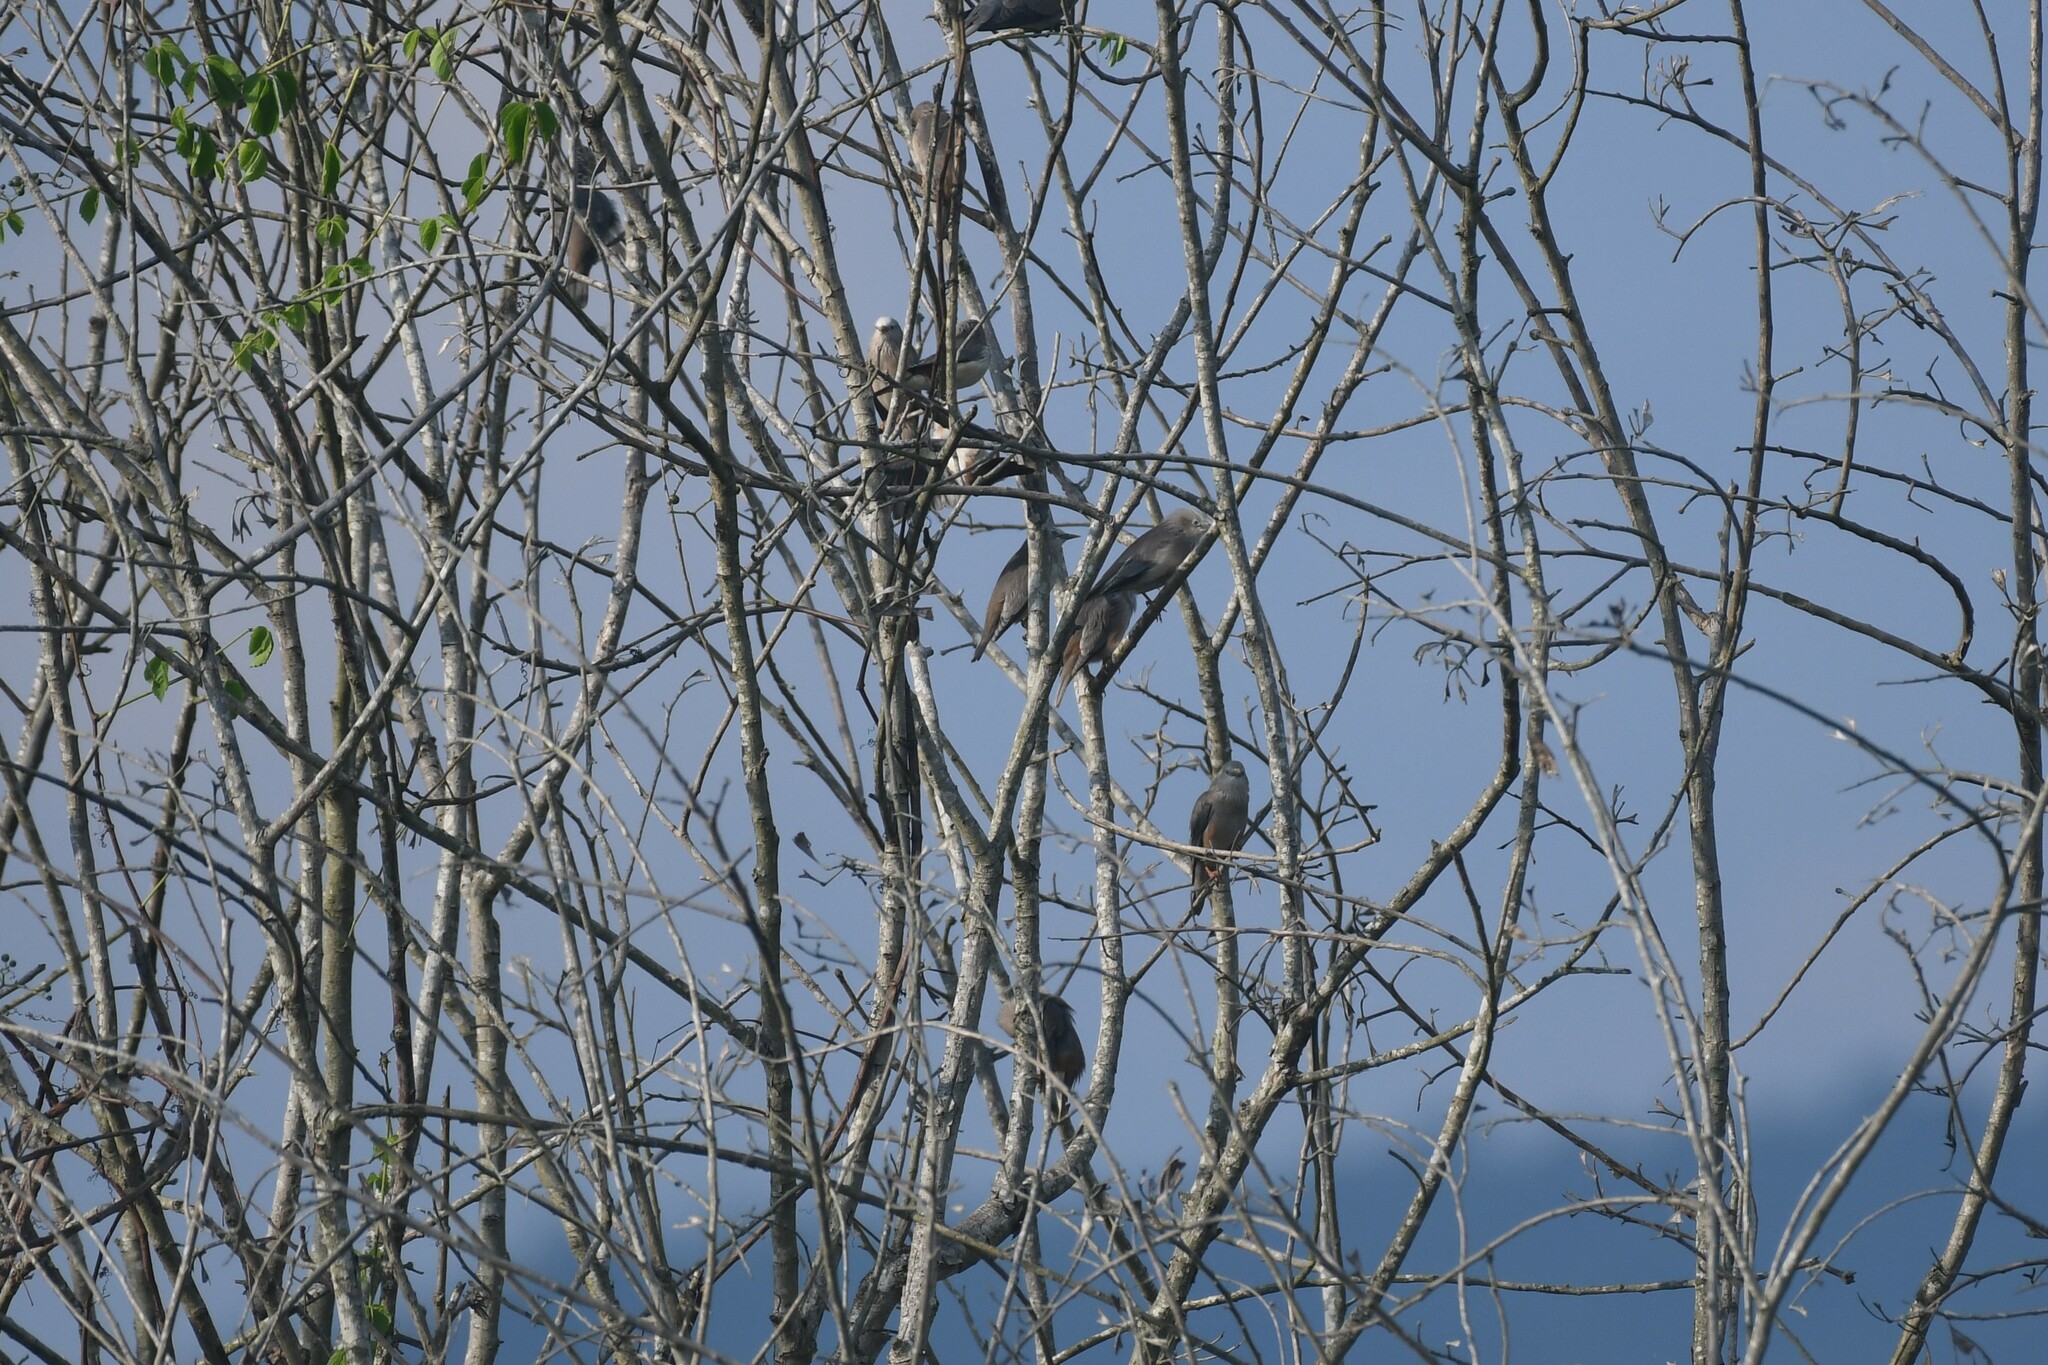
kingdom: Animalia
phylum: Chordata
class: Aves
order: Passeriformes
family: Sturnidae
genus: Sturnia
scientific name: Sturnia malabarica
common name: Chestnut-tailed starling
